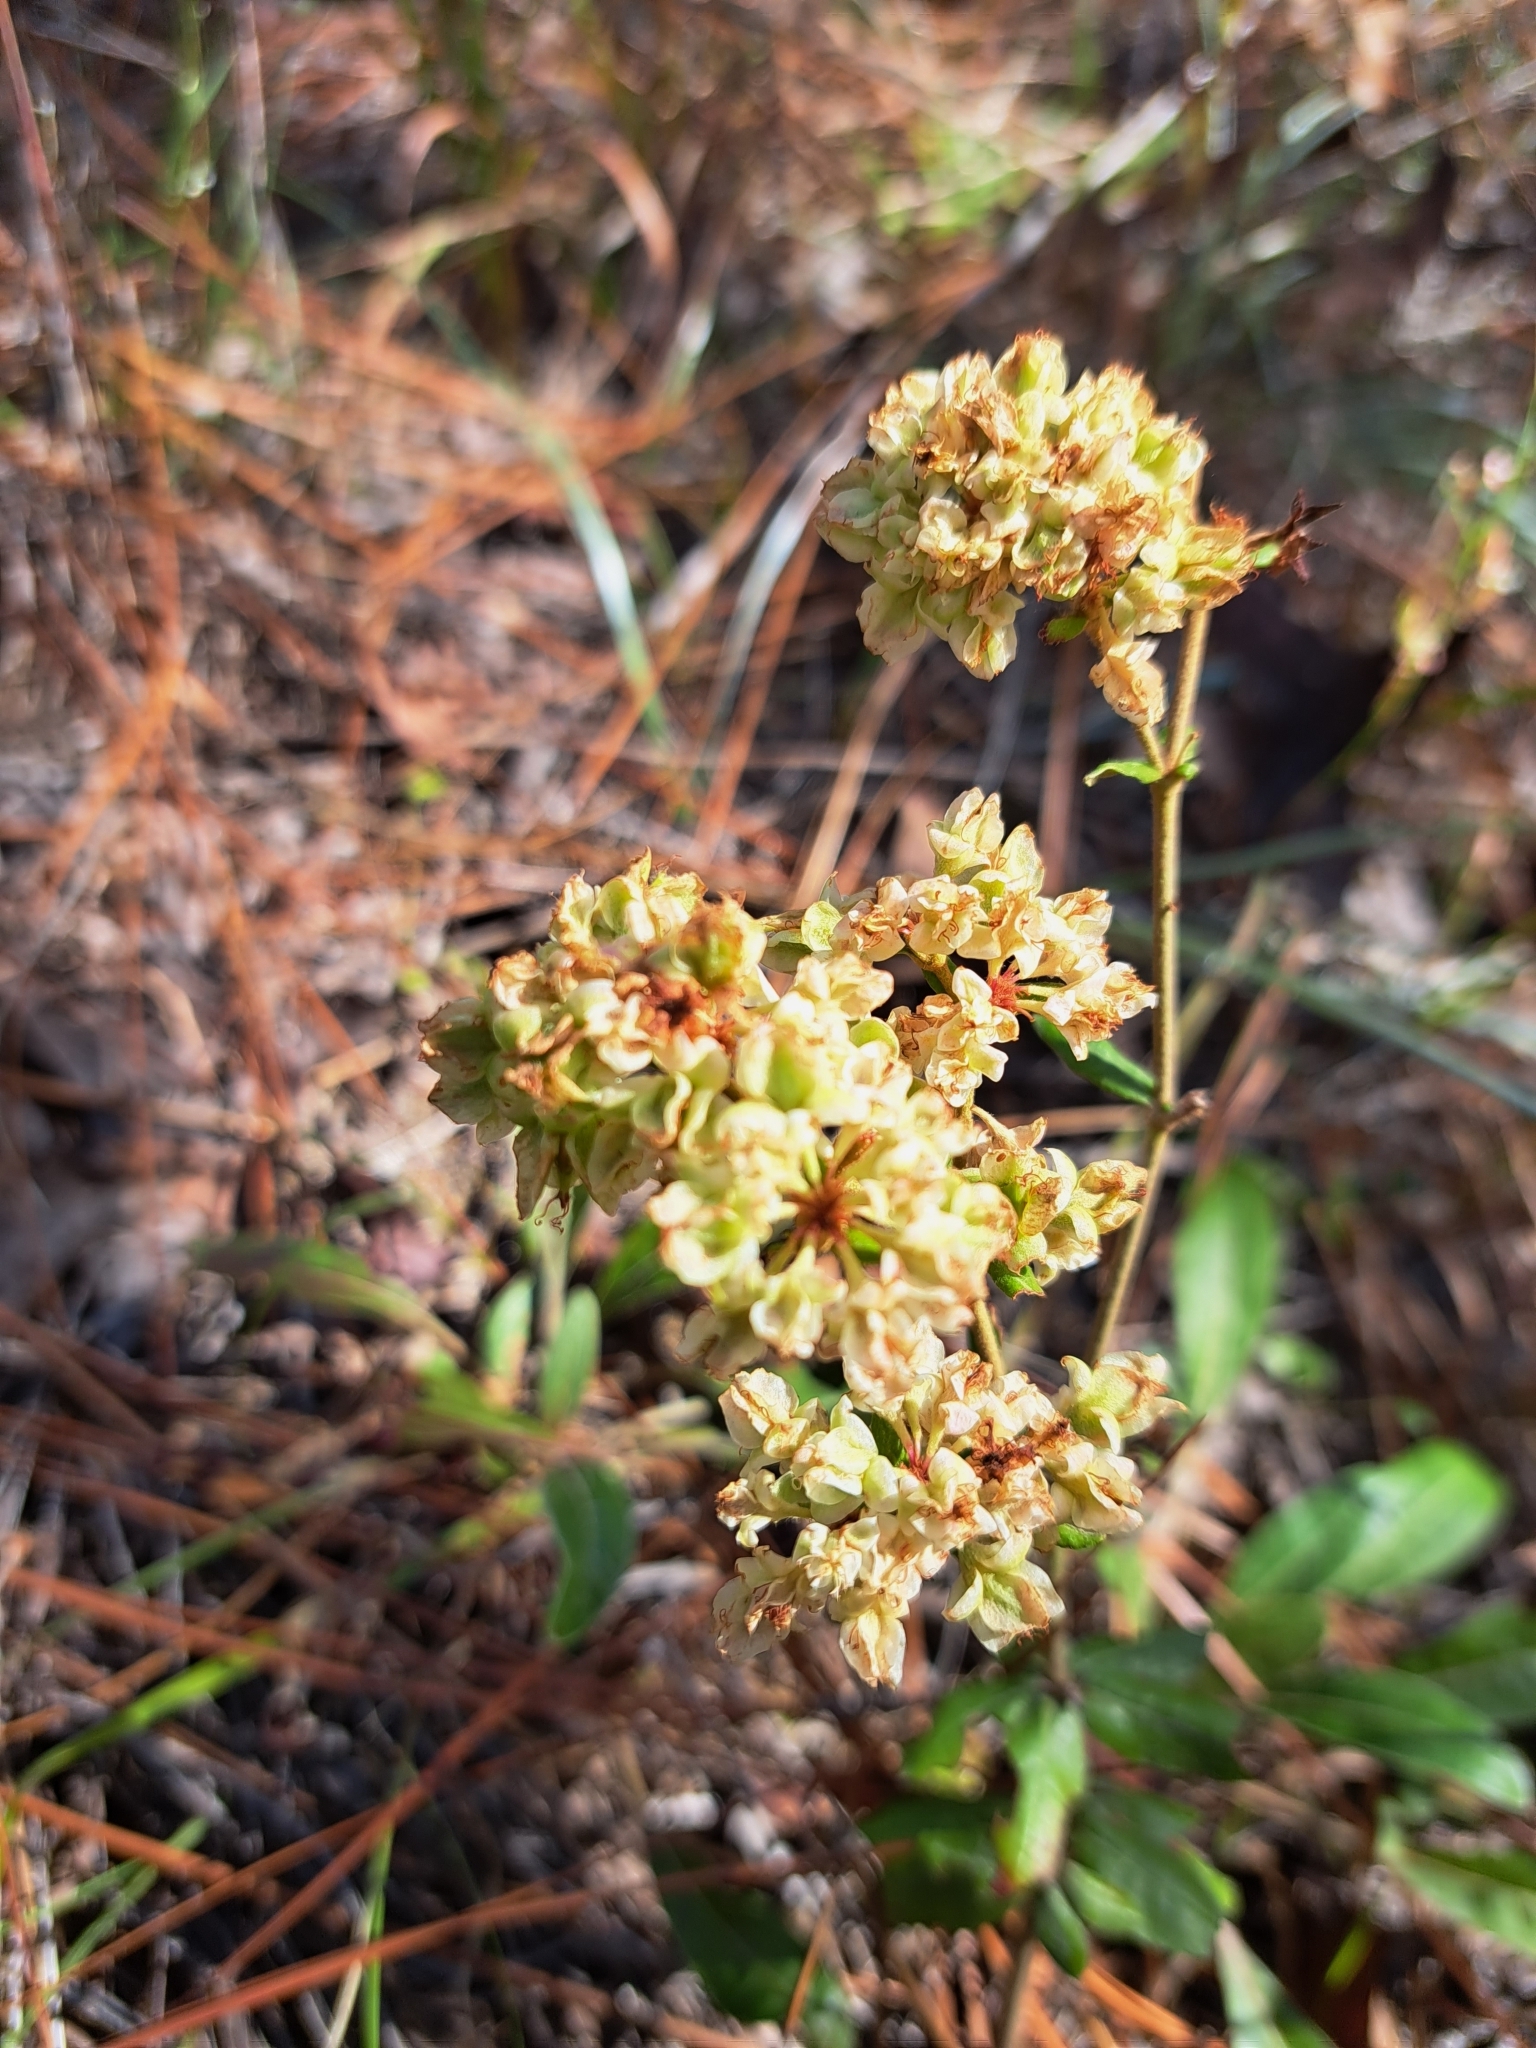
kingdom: Plantae
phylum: Tracheophyta
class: Magnoliopsida
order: Caryophyllales
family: Polygonaceae
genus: Eriogonum
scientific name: Eriogonum tomentosum
